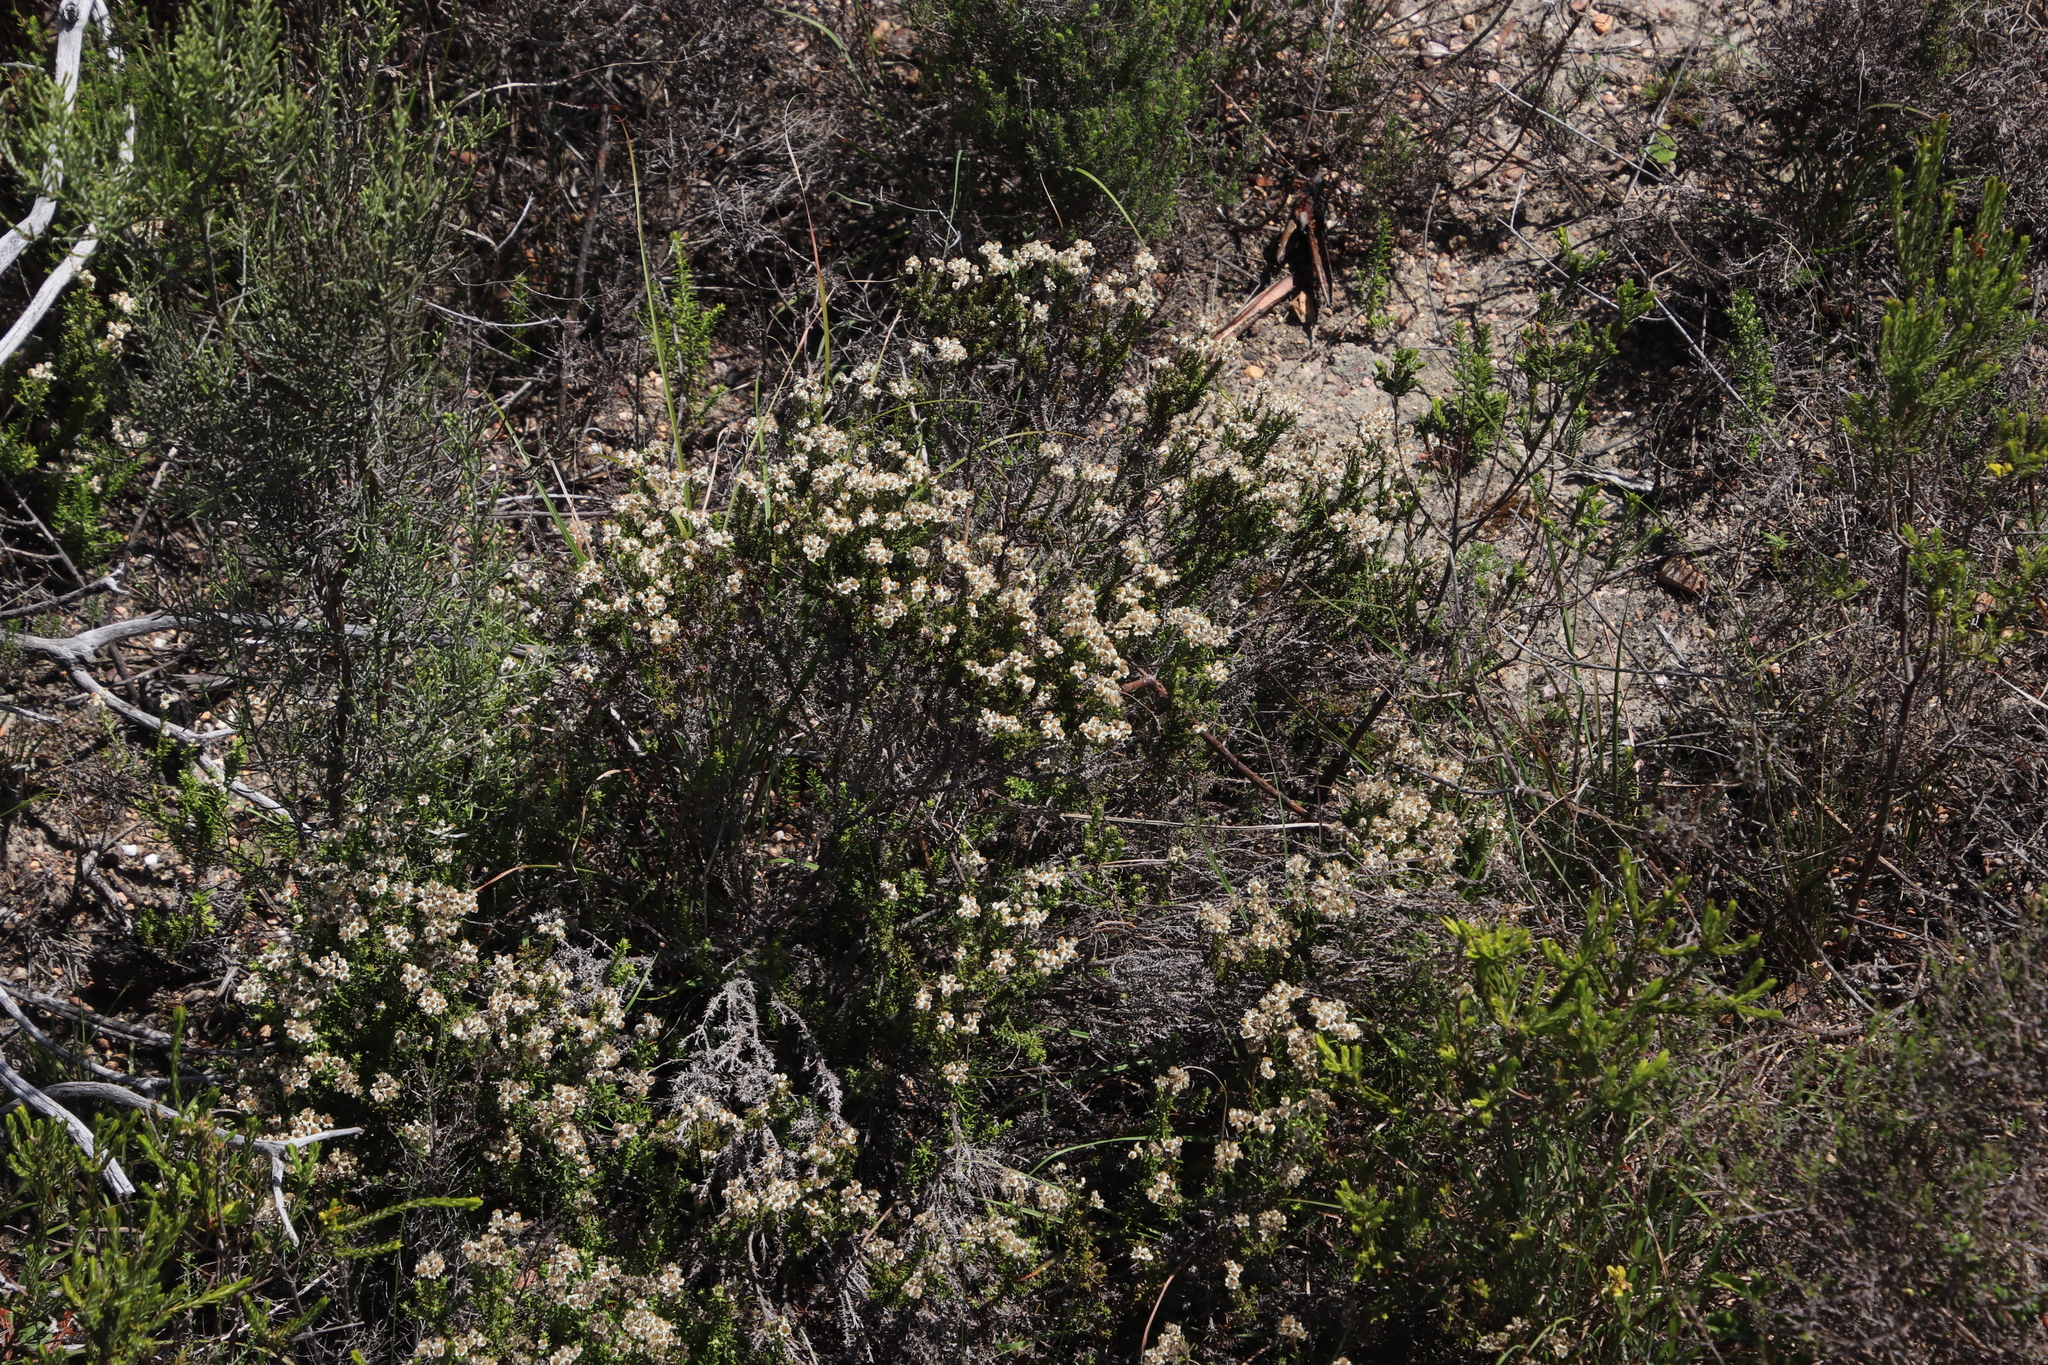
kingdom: Plantae
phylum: Tracheophyta
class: Magnoliopsida
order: Asterales
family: Asteraceae
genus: Helichrysum
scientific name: Helichrysum teretifolium
